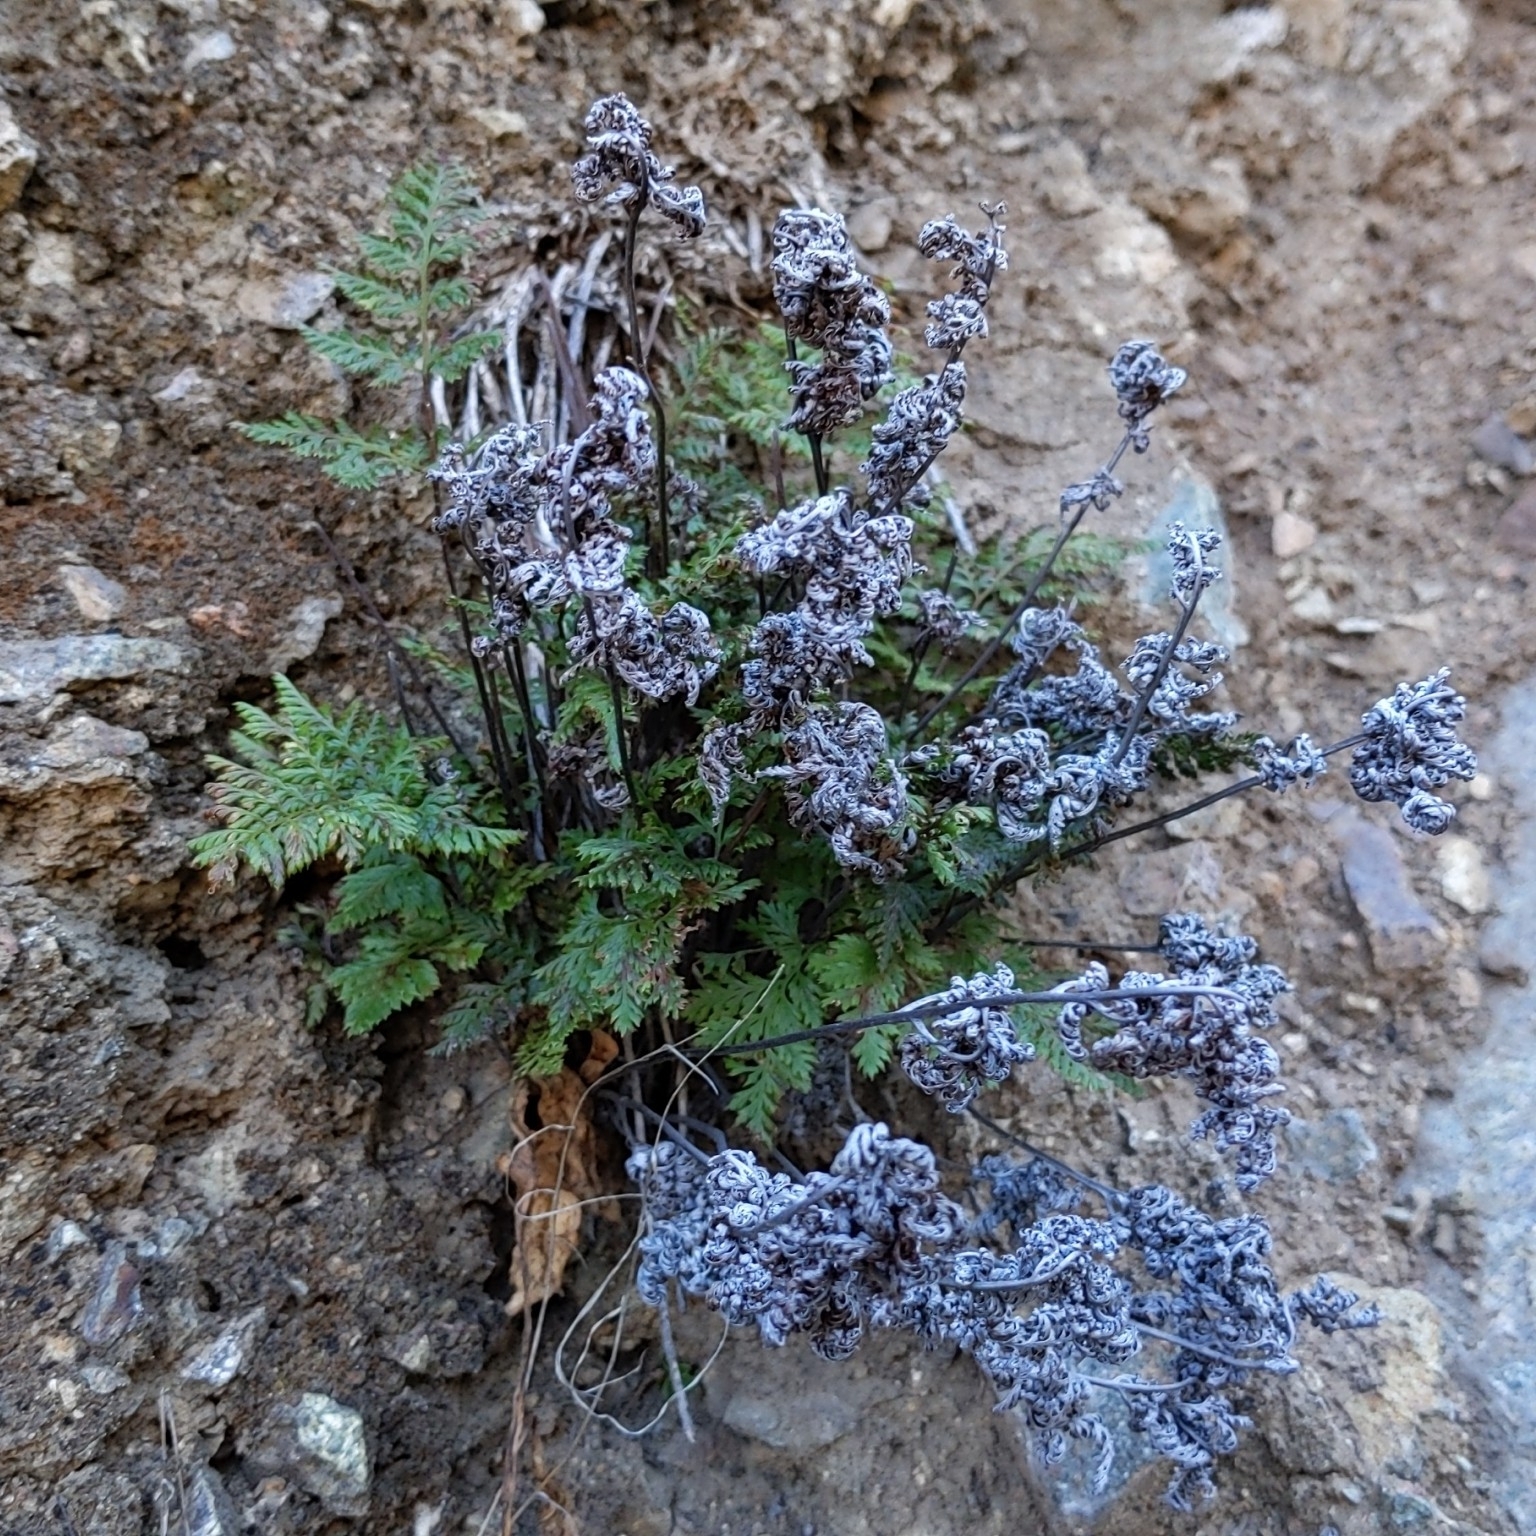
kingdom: Plantae
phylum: Tracheophyta
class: Polypodiopsida
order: Polypodiales
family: Pteridaceae
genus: Aspidotis
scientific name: Aspidotis californica
